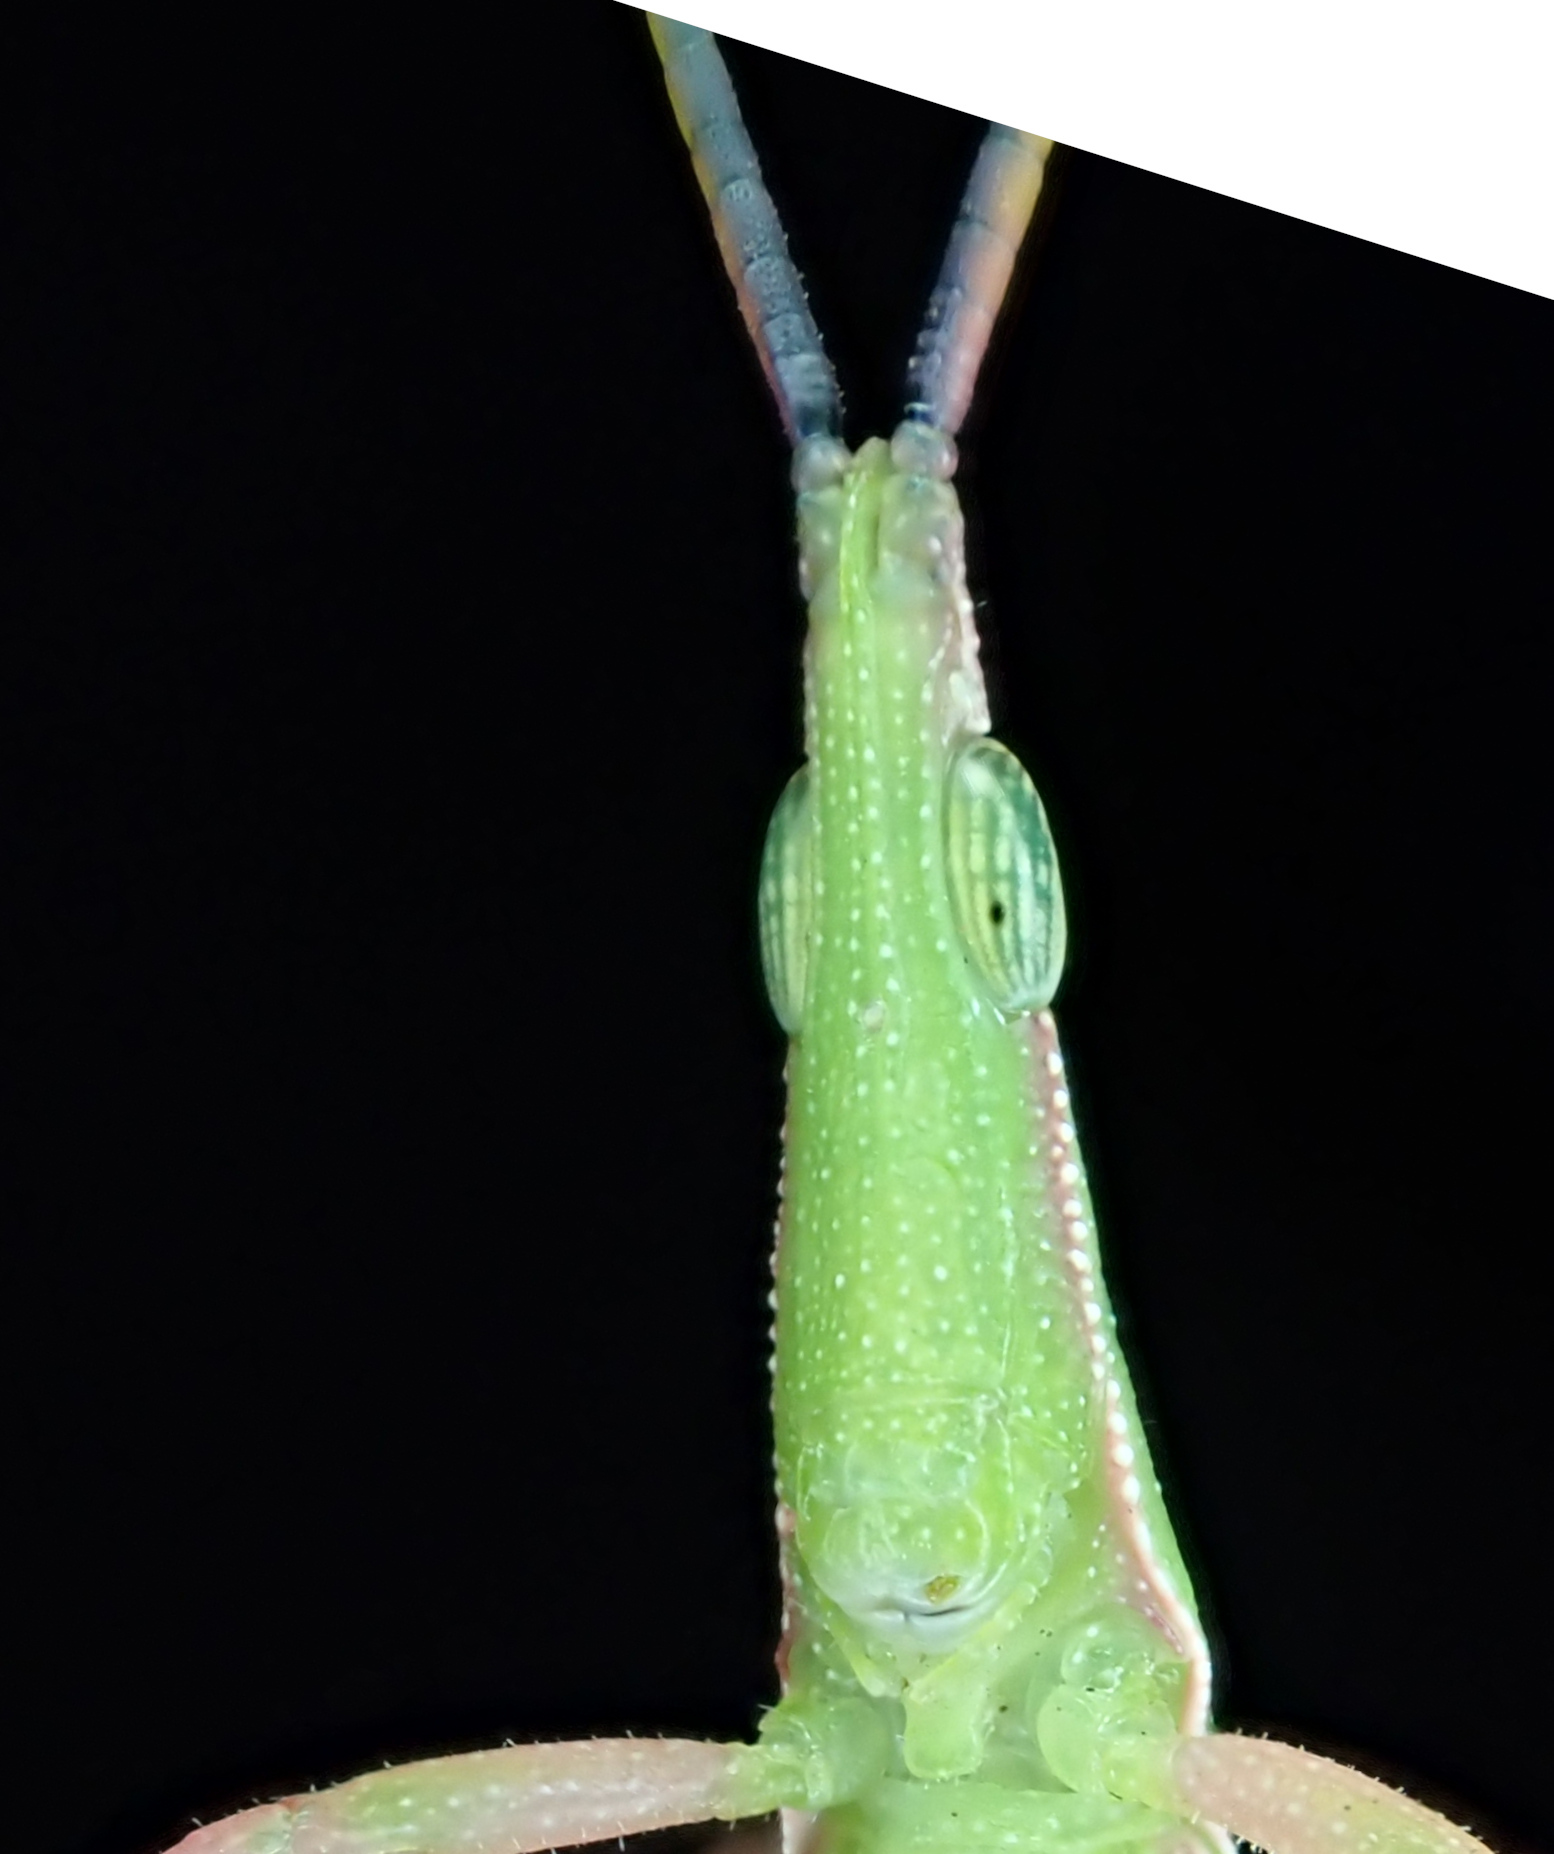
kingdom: Animalia
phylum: Arthropoda
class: Insecta
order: Orthoptera
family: Pyrgomorphidae
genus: Atractomorpha
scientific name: Atractomorpha similis
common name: Northern grass pyrgomorph
